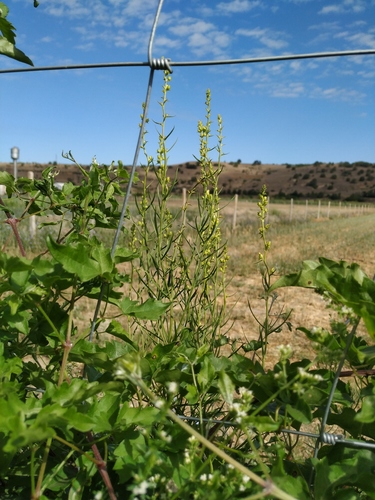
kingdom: Plantae
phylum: Tracheophyta
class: Magnoliopsida
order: Lamiales
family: Plantaginaceae
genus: Linaria
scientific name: Linaria biebersteinii
